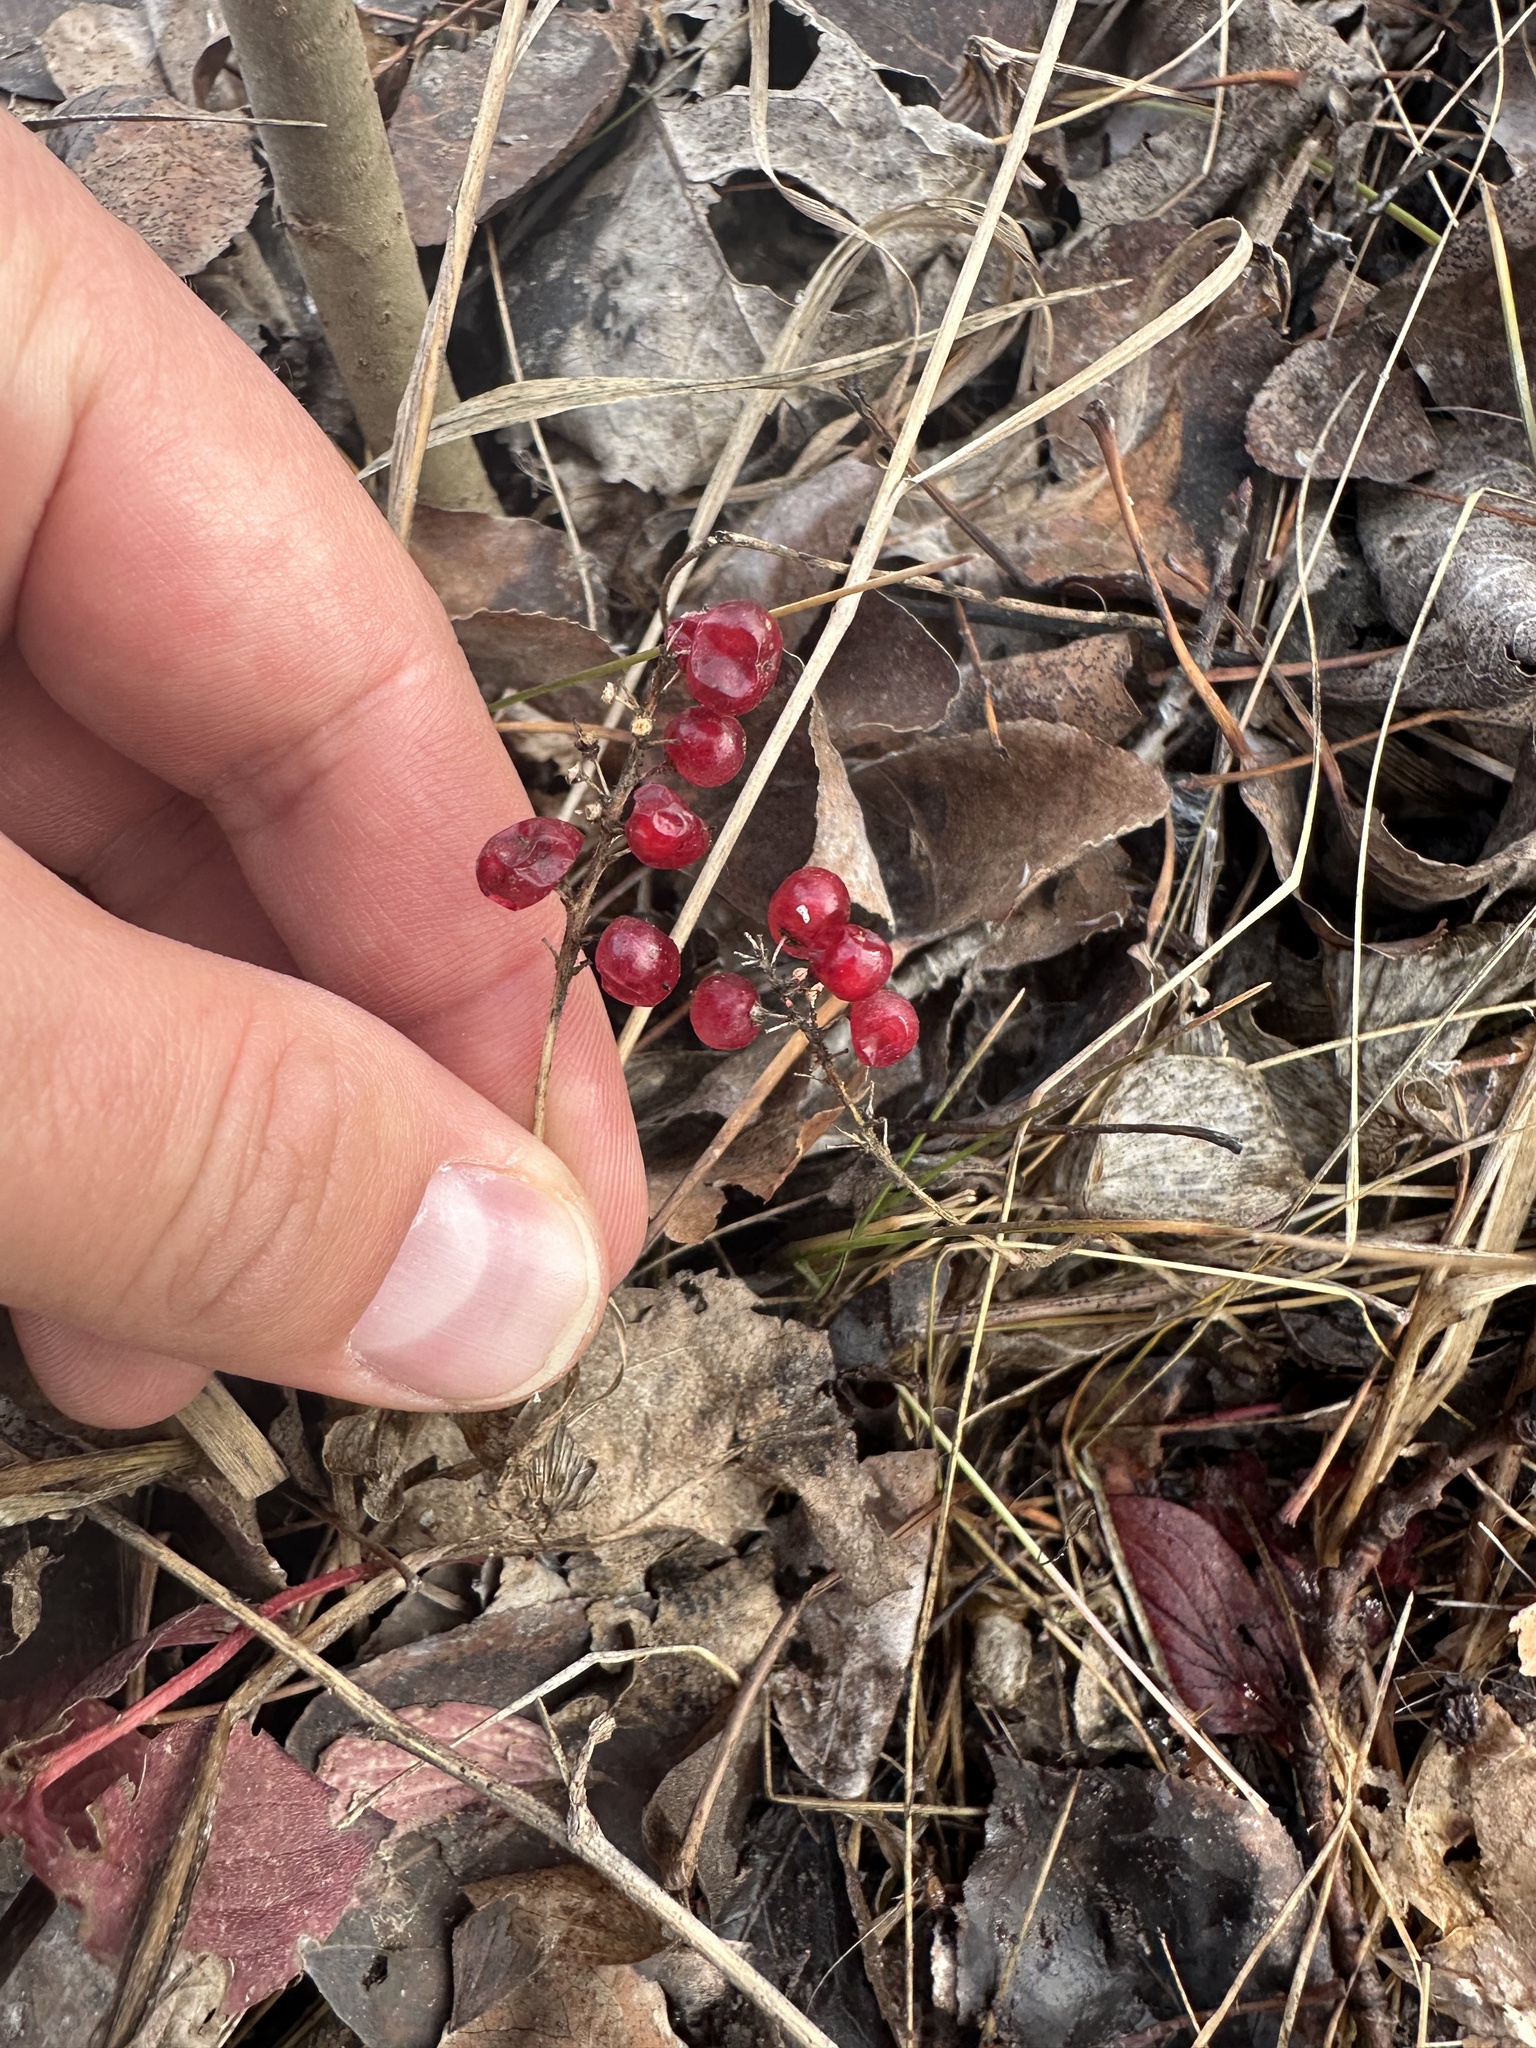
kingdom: Plantae
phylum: Tracheophyta
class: Liliopsida
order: Asparagales
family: Asparagaceae
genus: Maianthemum
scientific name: Maianthemum canadense
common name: False lily-of-the-valley
